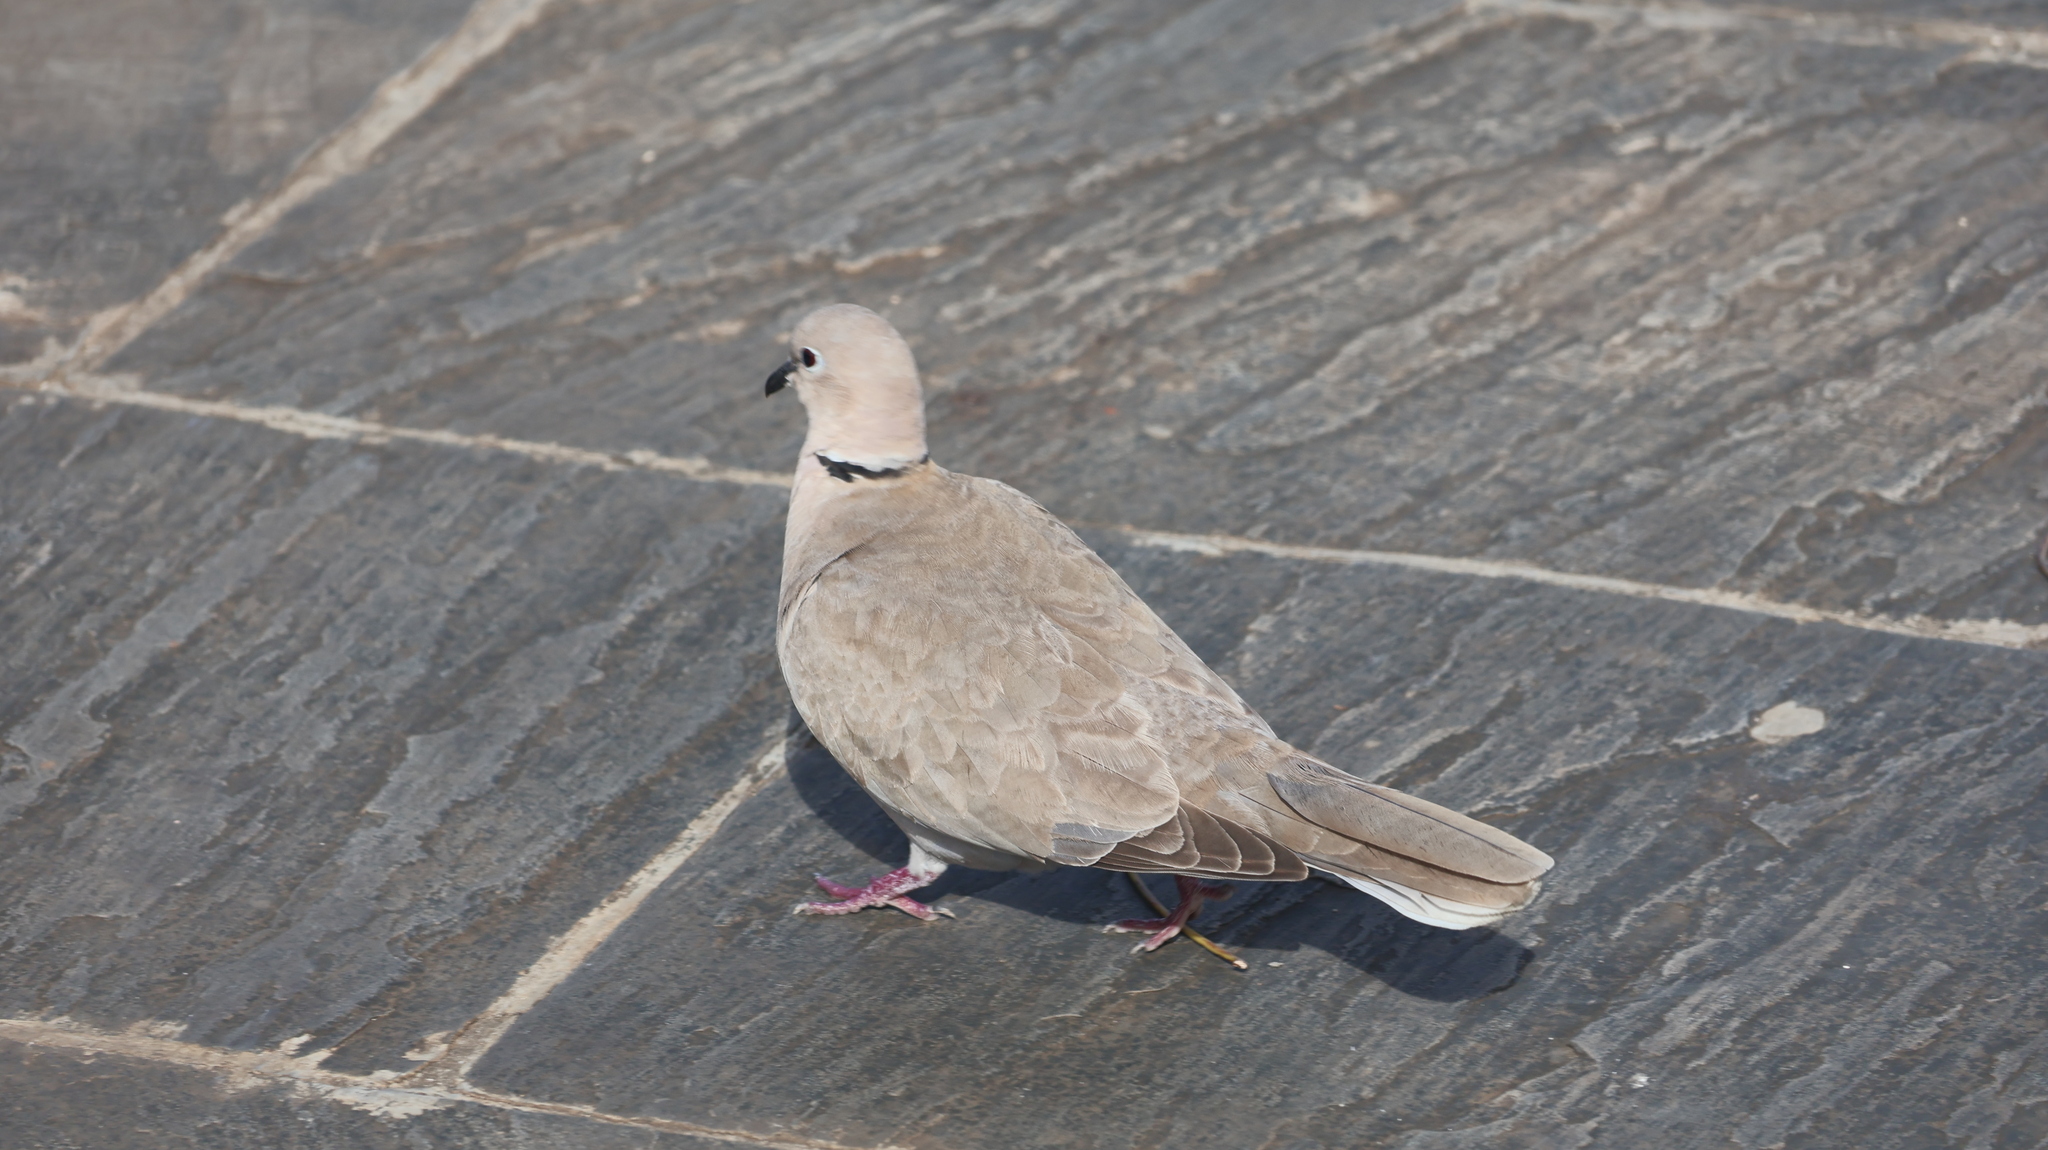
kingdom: Animalia
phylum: Chordata
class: Aves
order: Columbiformes
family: Columbidae
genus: Streptopelia
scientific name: Streptopelia decaocto
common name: Eurasian collared dove
